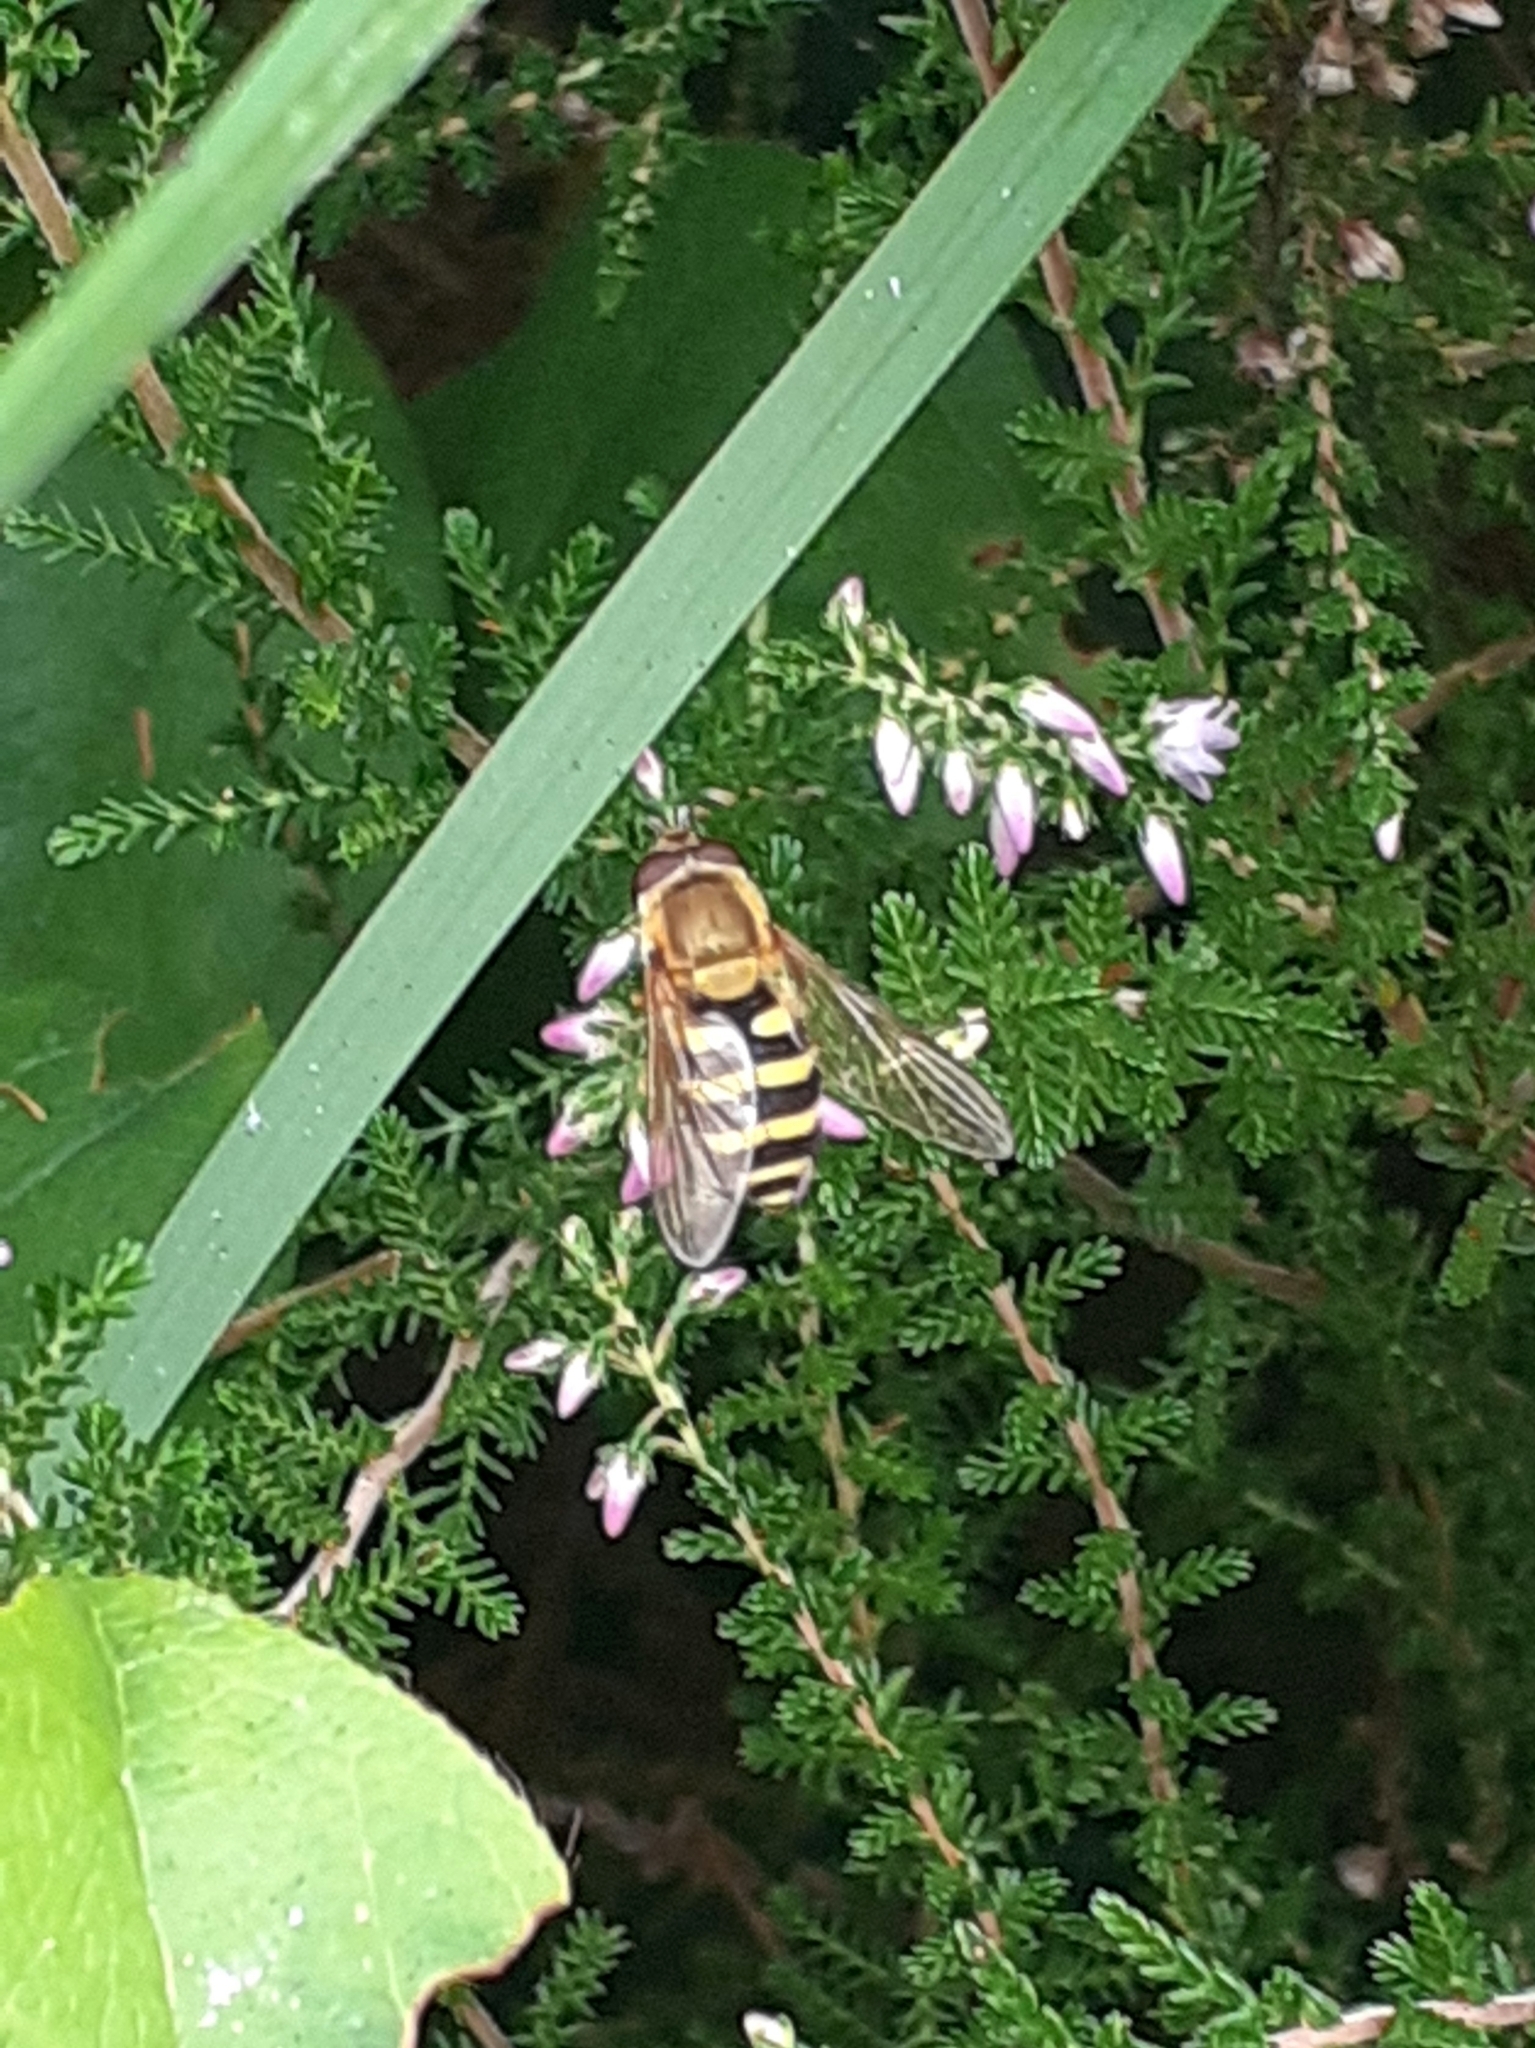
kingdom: Animalia
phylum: Arthropoda
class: Insecta
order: Diptera
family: Syrphidae
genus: Syrphus
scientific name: Syrphus
